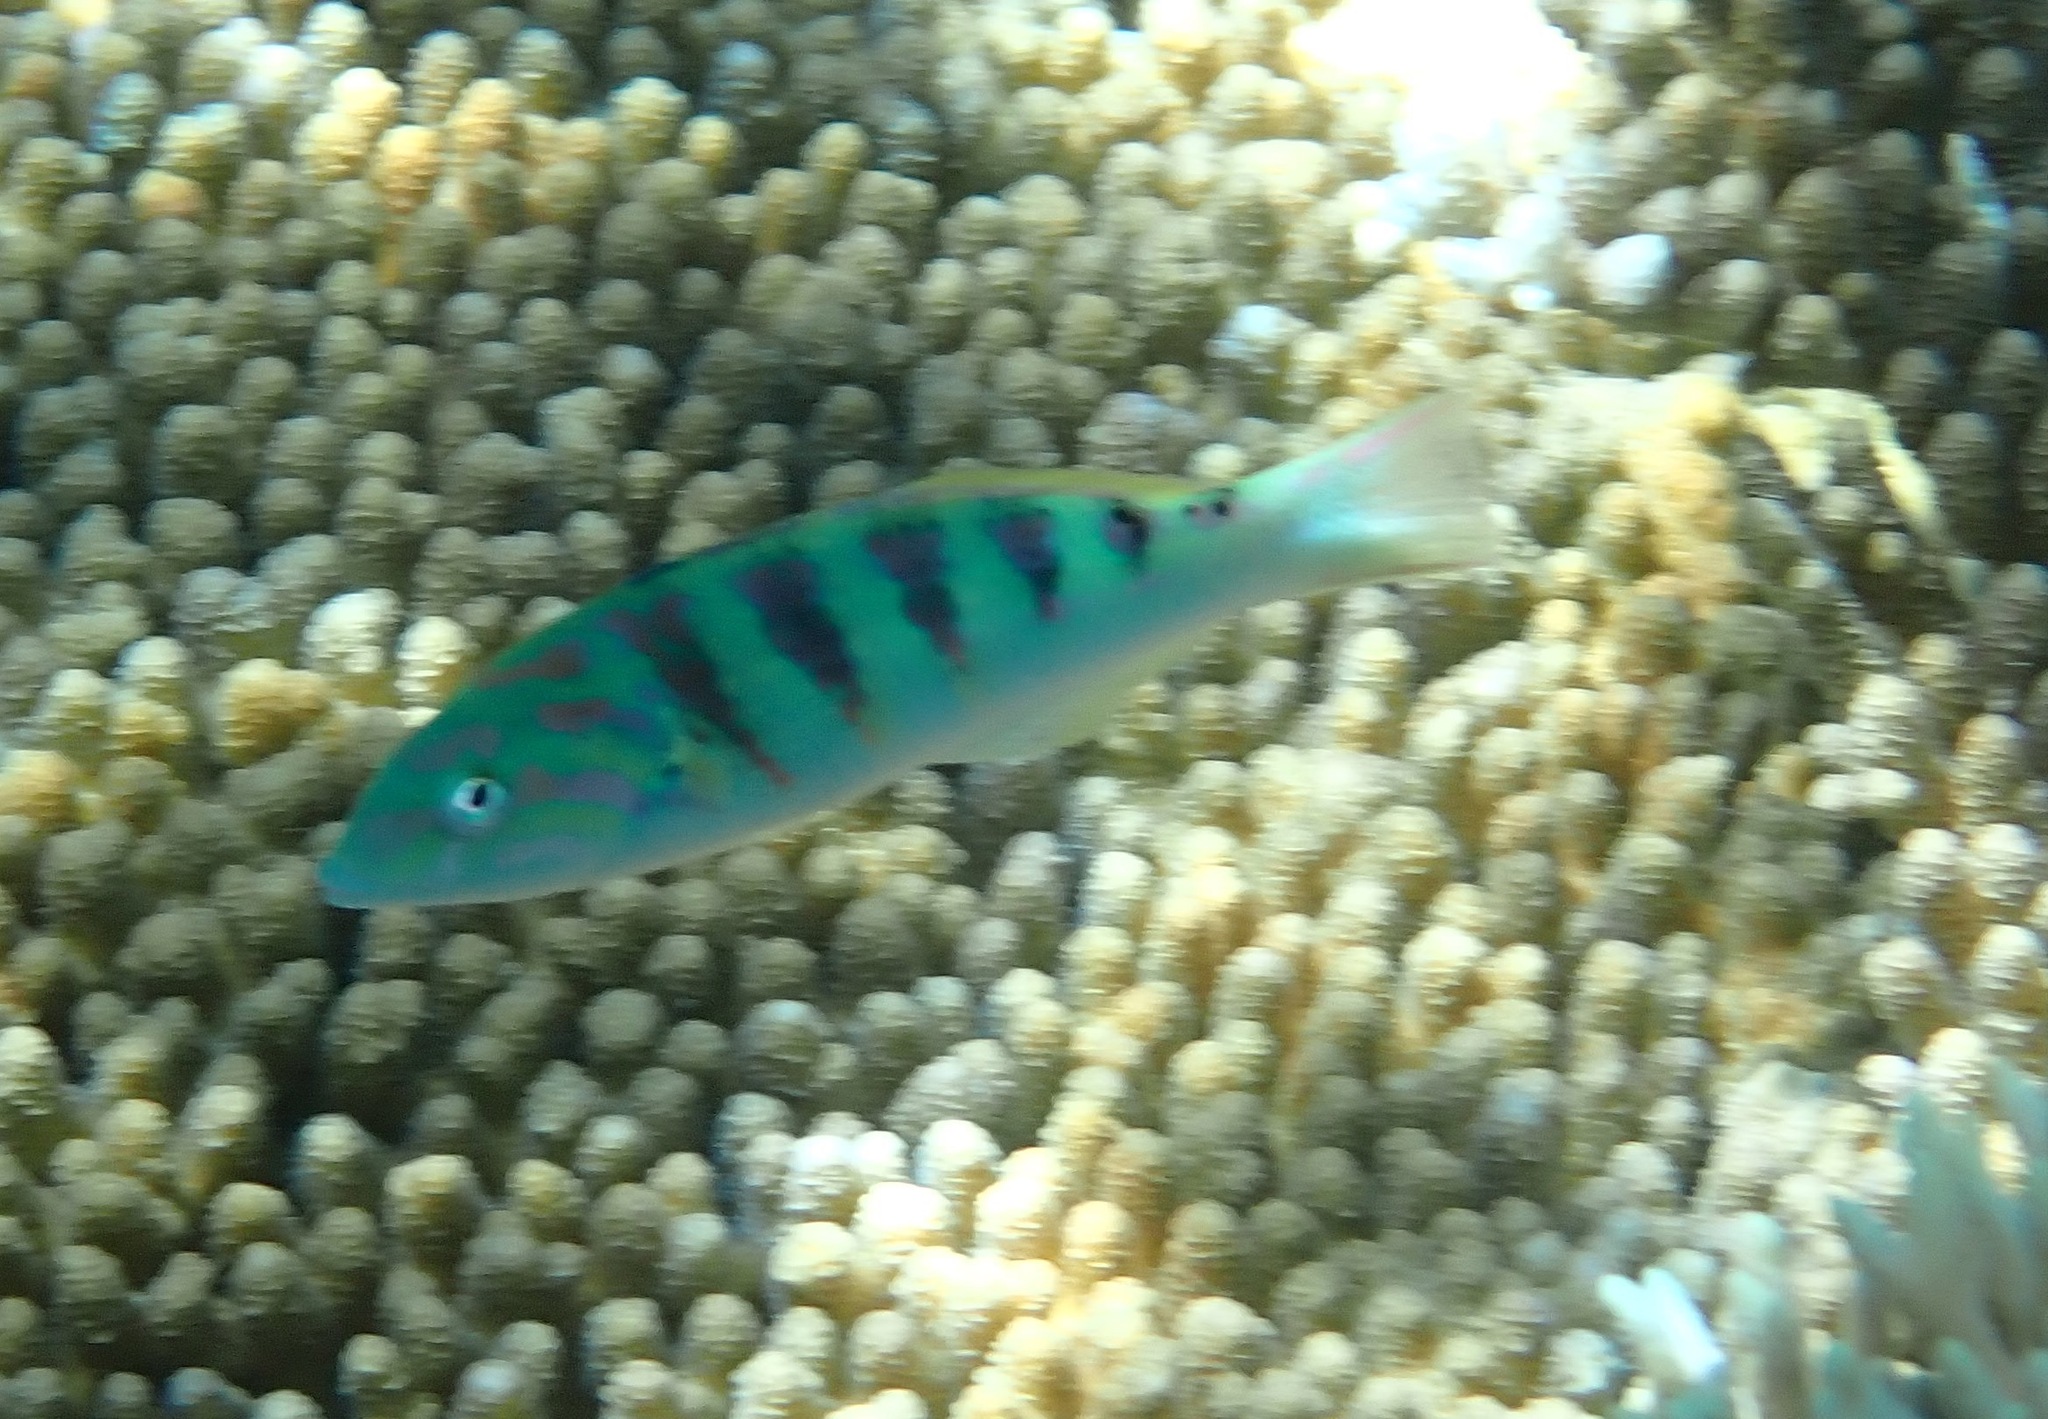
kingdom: Animalia
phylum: Chordata
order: Perciformes
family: Labridae
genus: Thalassoma
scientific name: Thalassoma hardwicke
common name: Sixbar wrasse
